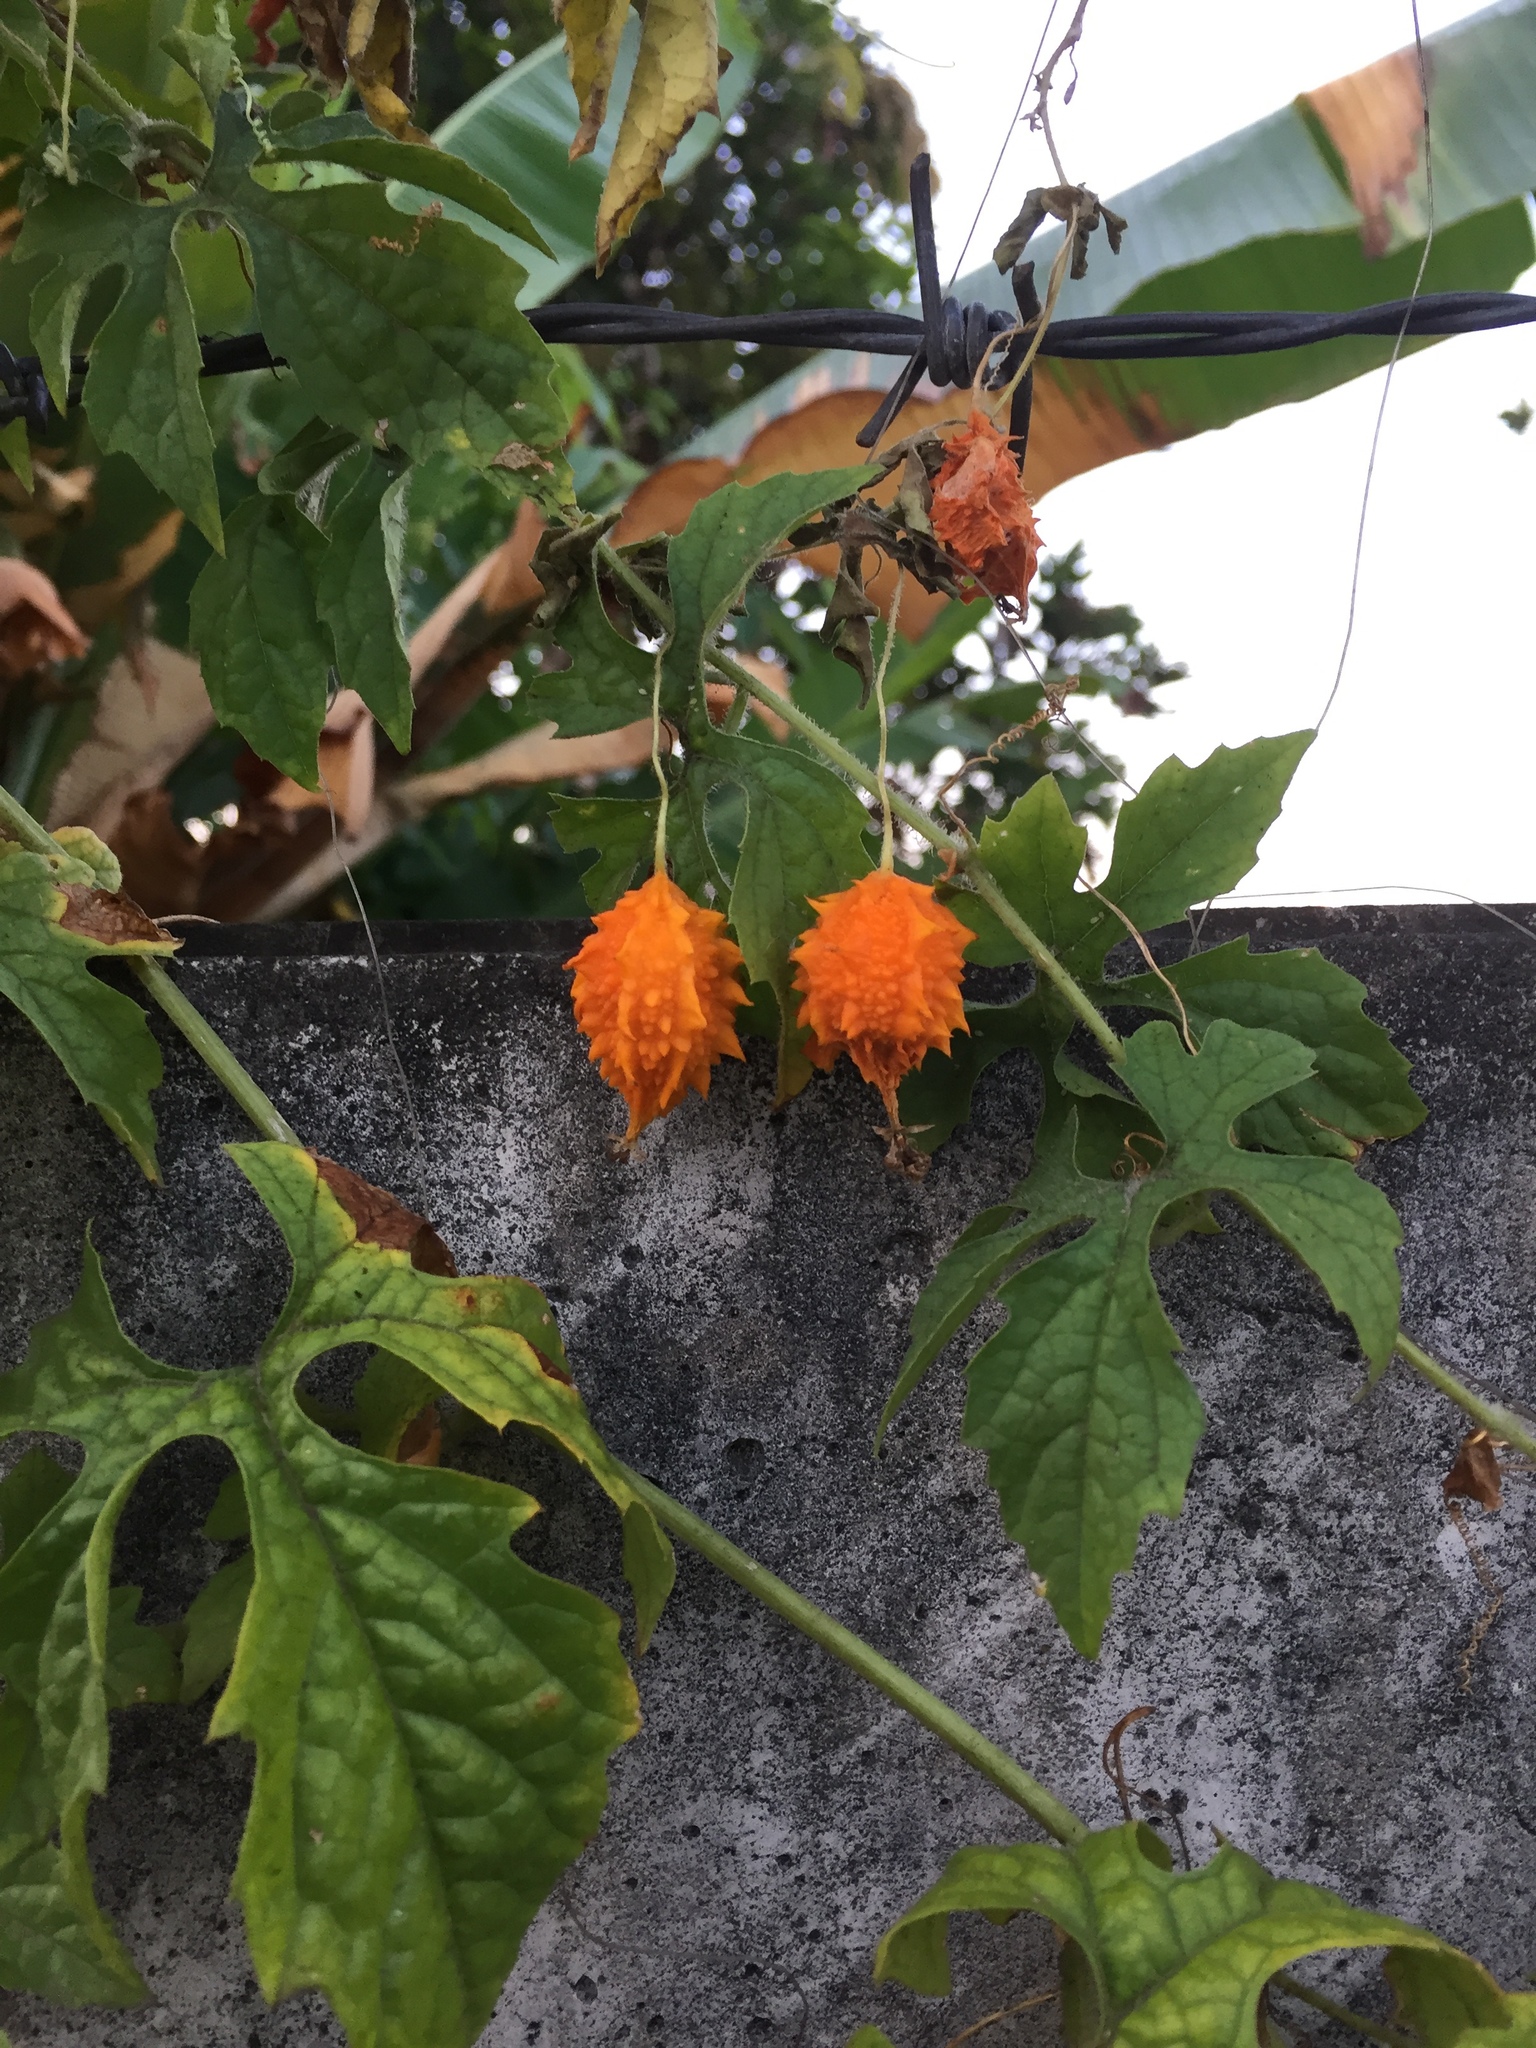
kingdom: Plantae
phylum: Tracheophyta
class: Magnoliopsida
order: Cucurbitales
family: Cucurbitaceae
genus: Momordica
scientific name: Momordica charantia
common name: Balsampear
